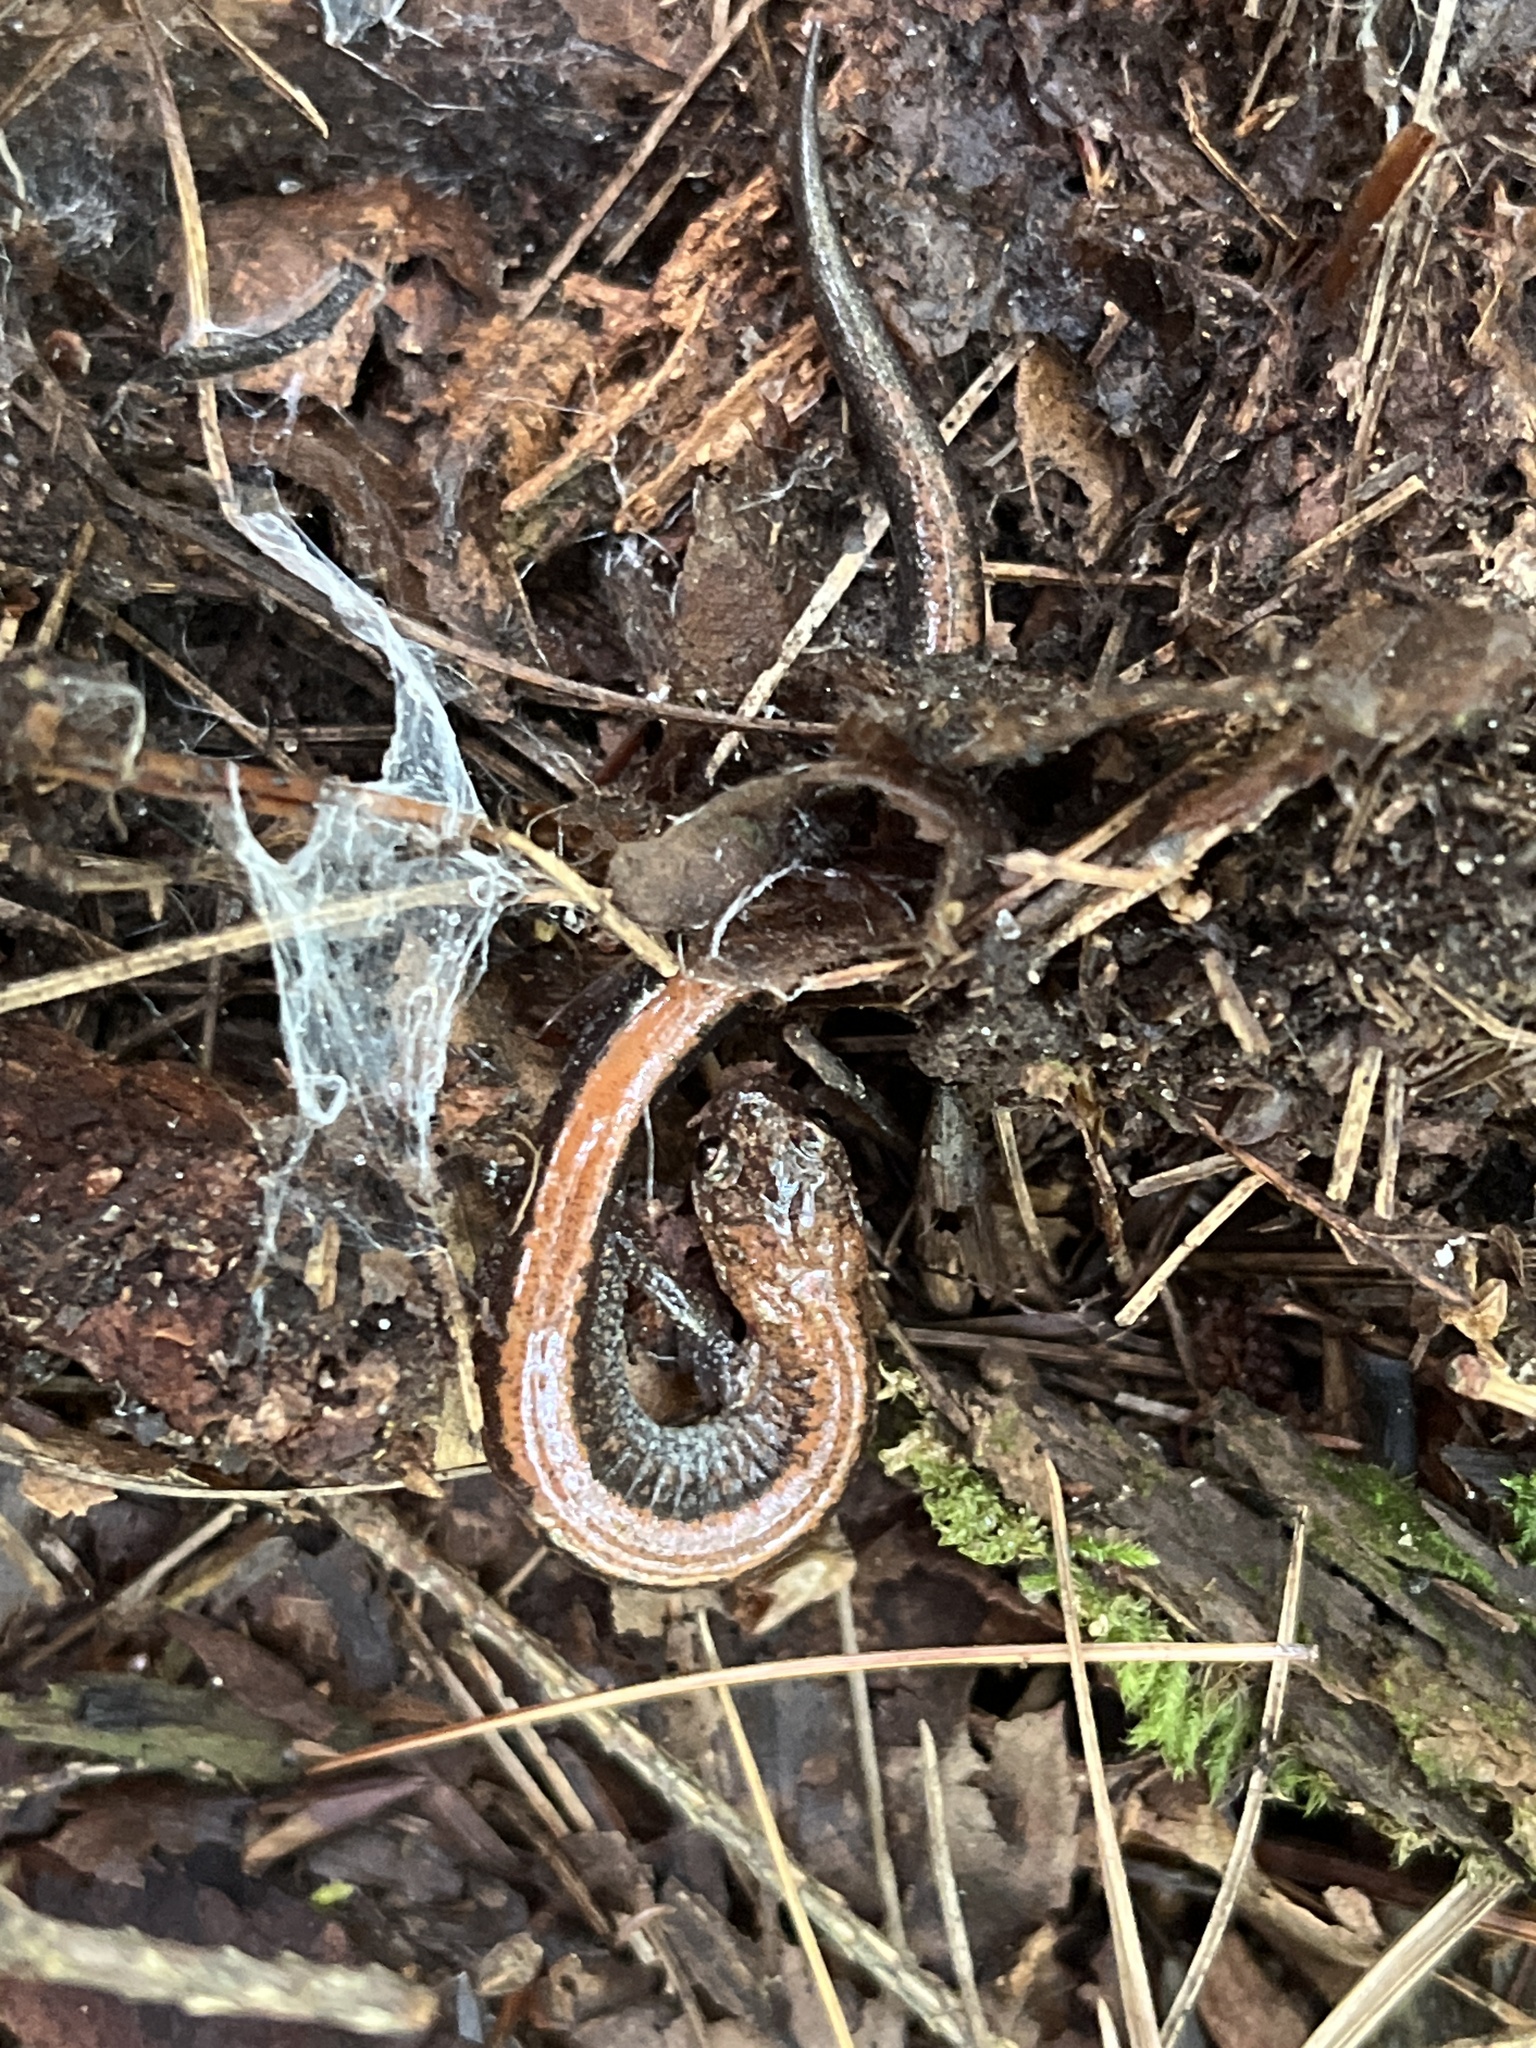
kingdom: Animalia
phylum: Chordata
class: Amphibia
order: Caudata
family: Plethodontidae
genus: Plethodon
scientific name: Plethodon cinereus
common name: Redback salamander
